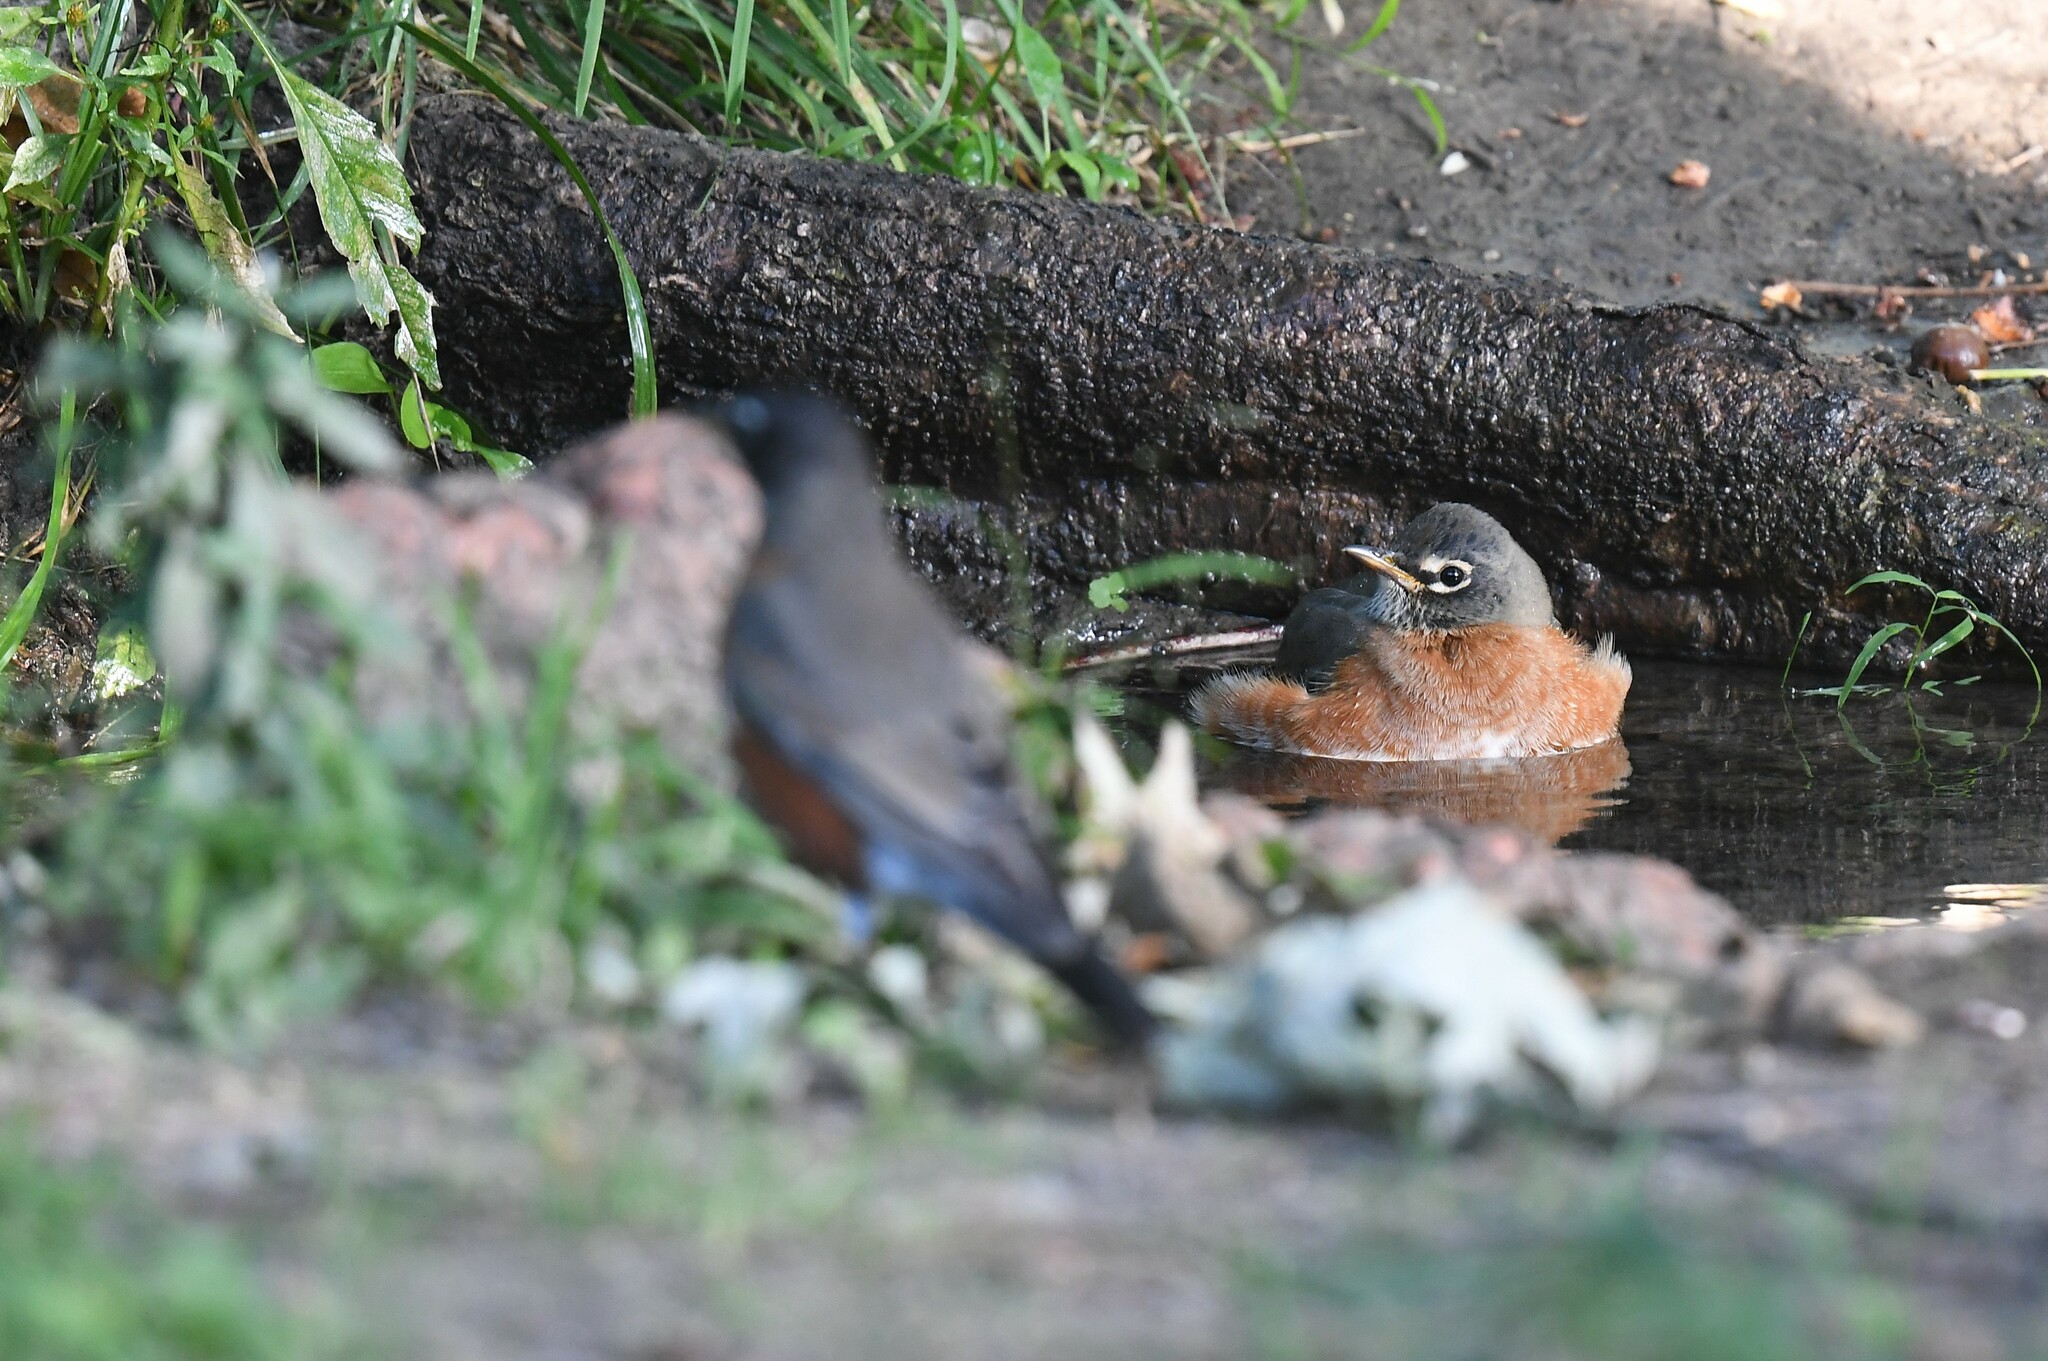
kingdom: Animalia
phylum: Chordata
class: Aves
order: Passeriformes
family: Turdidae
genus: Turdus
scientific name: Turdus migratorius
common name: American robin
